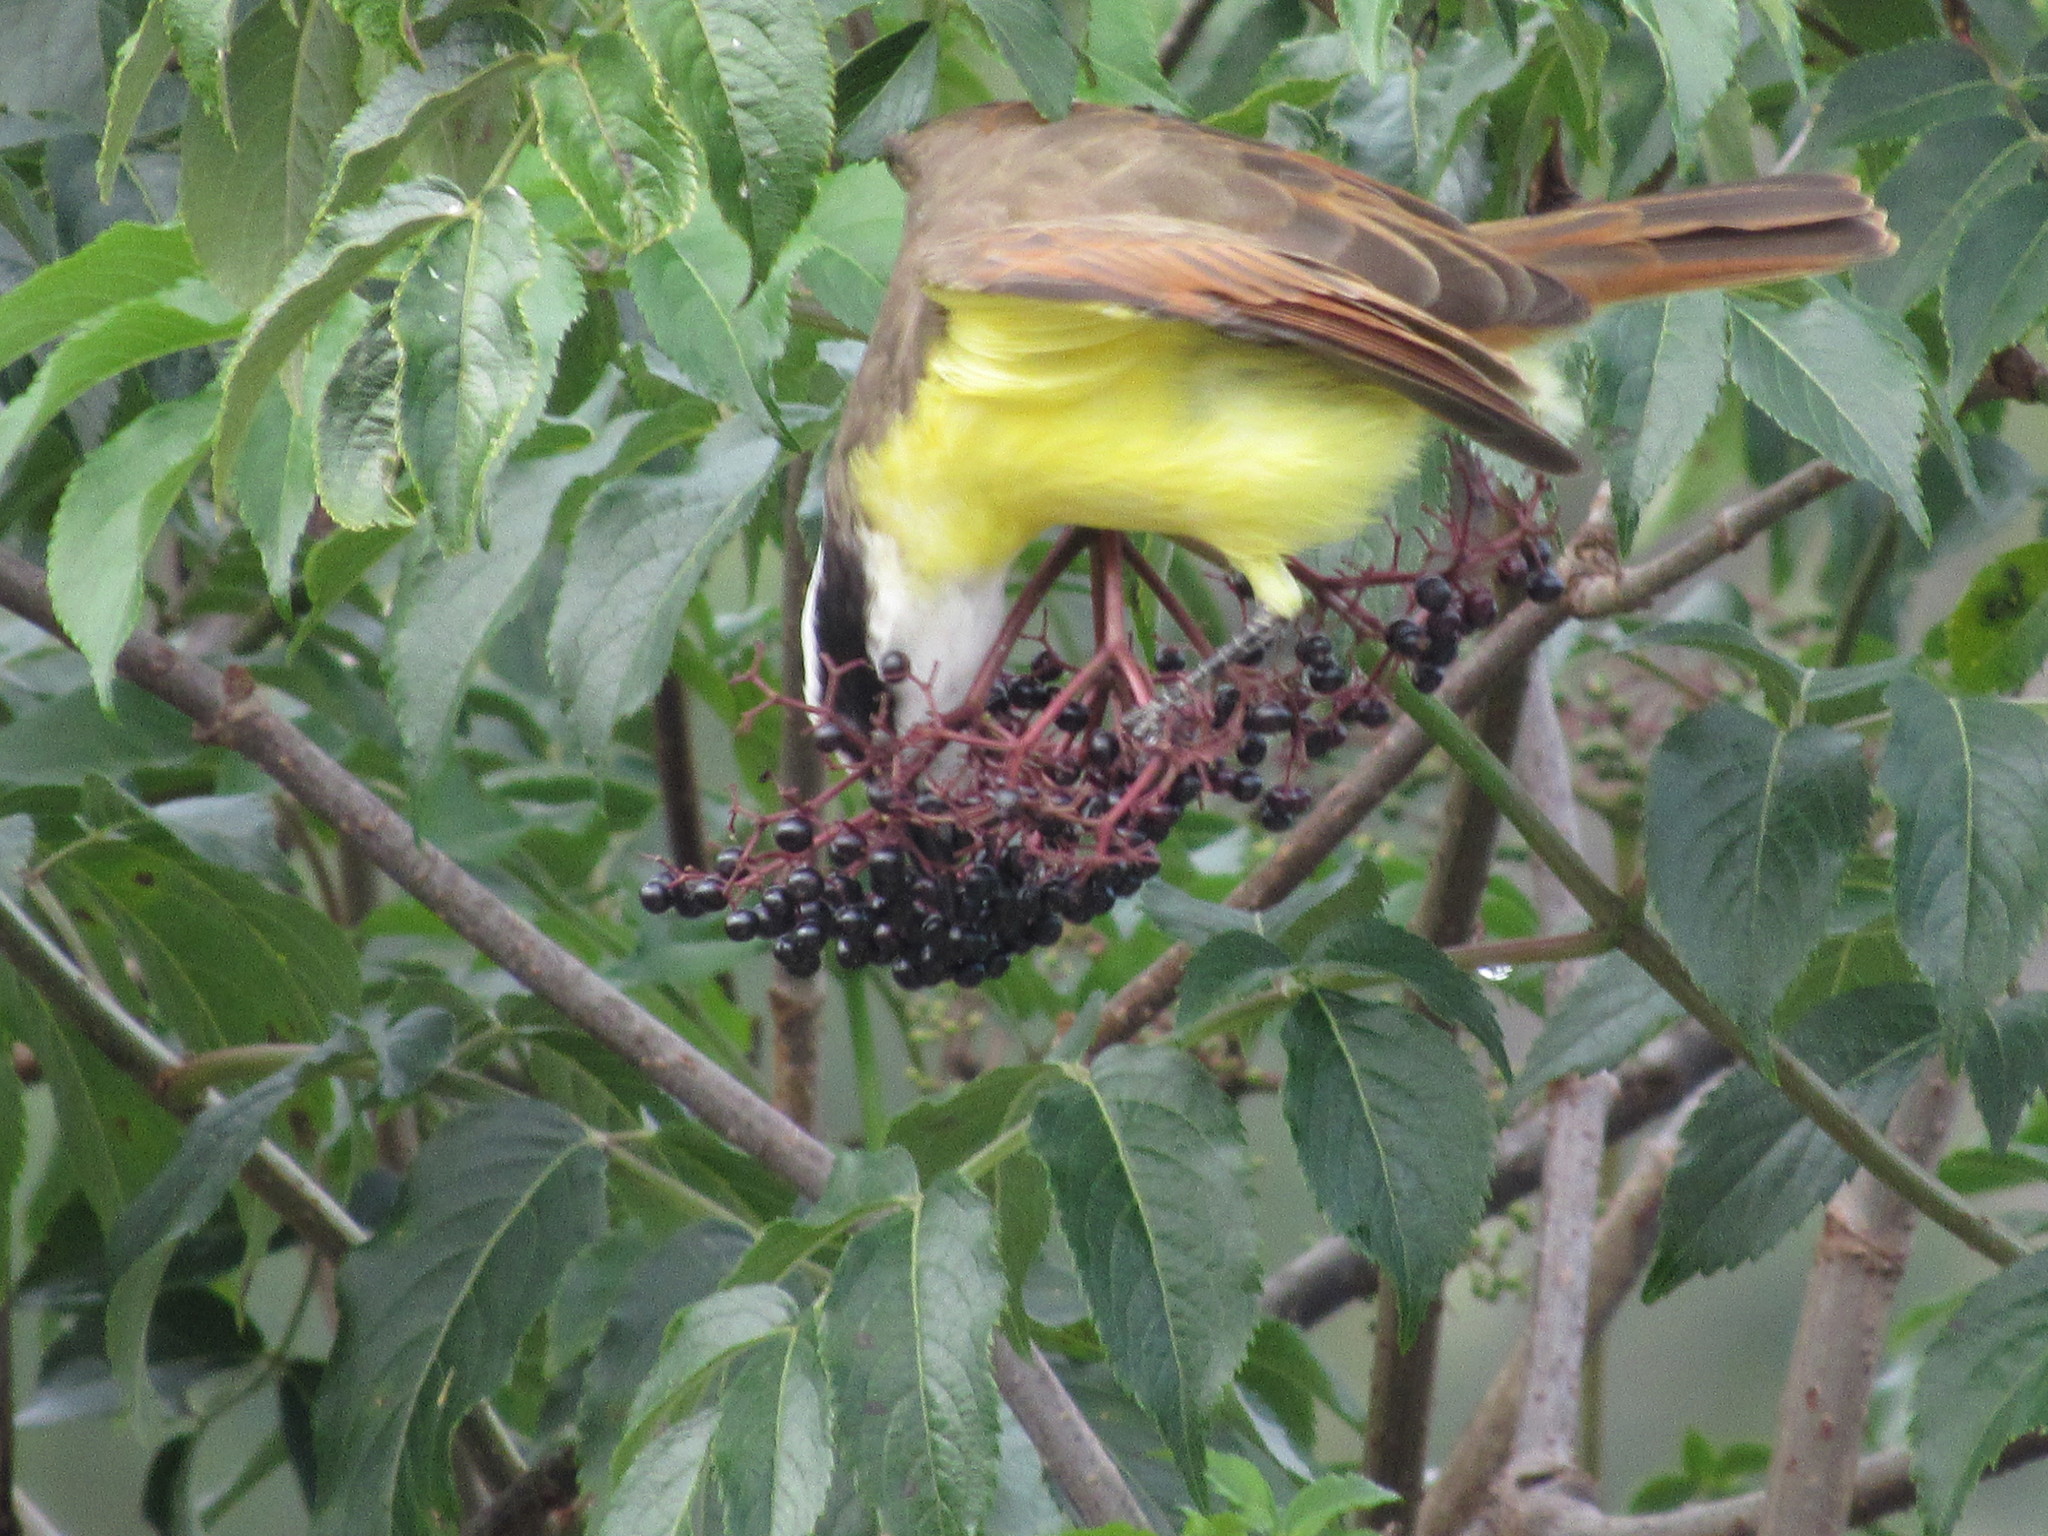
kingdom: Animalia
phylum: Chordata
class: Aves
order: Passeriformes
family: Tyrannidae
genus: Pitangus
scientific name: Pitangus sulphuratus
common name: Great kiskadee
